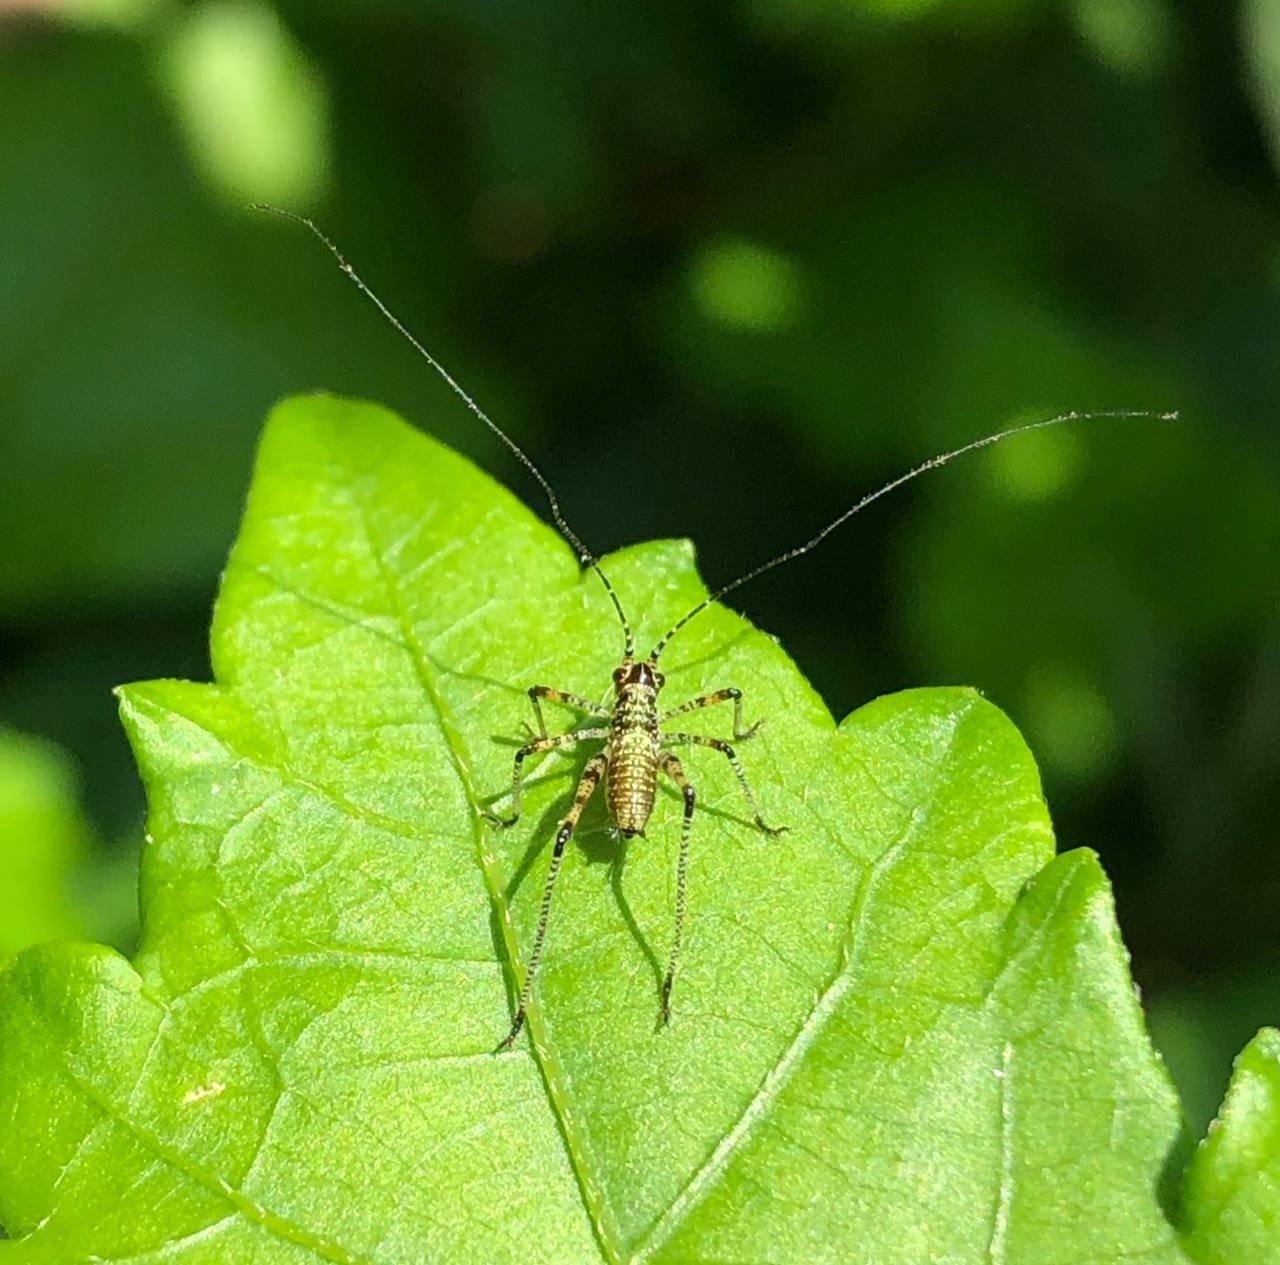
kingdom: Animalia
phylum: Arthropoda
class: Insecta
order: Orthoptera
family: Tettigoniidae
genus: Phaneroptera
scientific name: Phaneroptera nana
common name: Southern sickle bush-cricket
